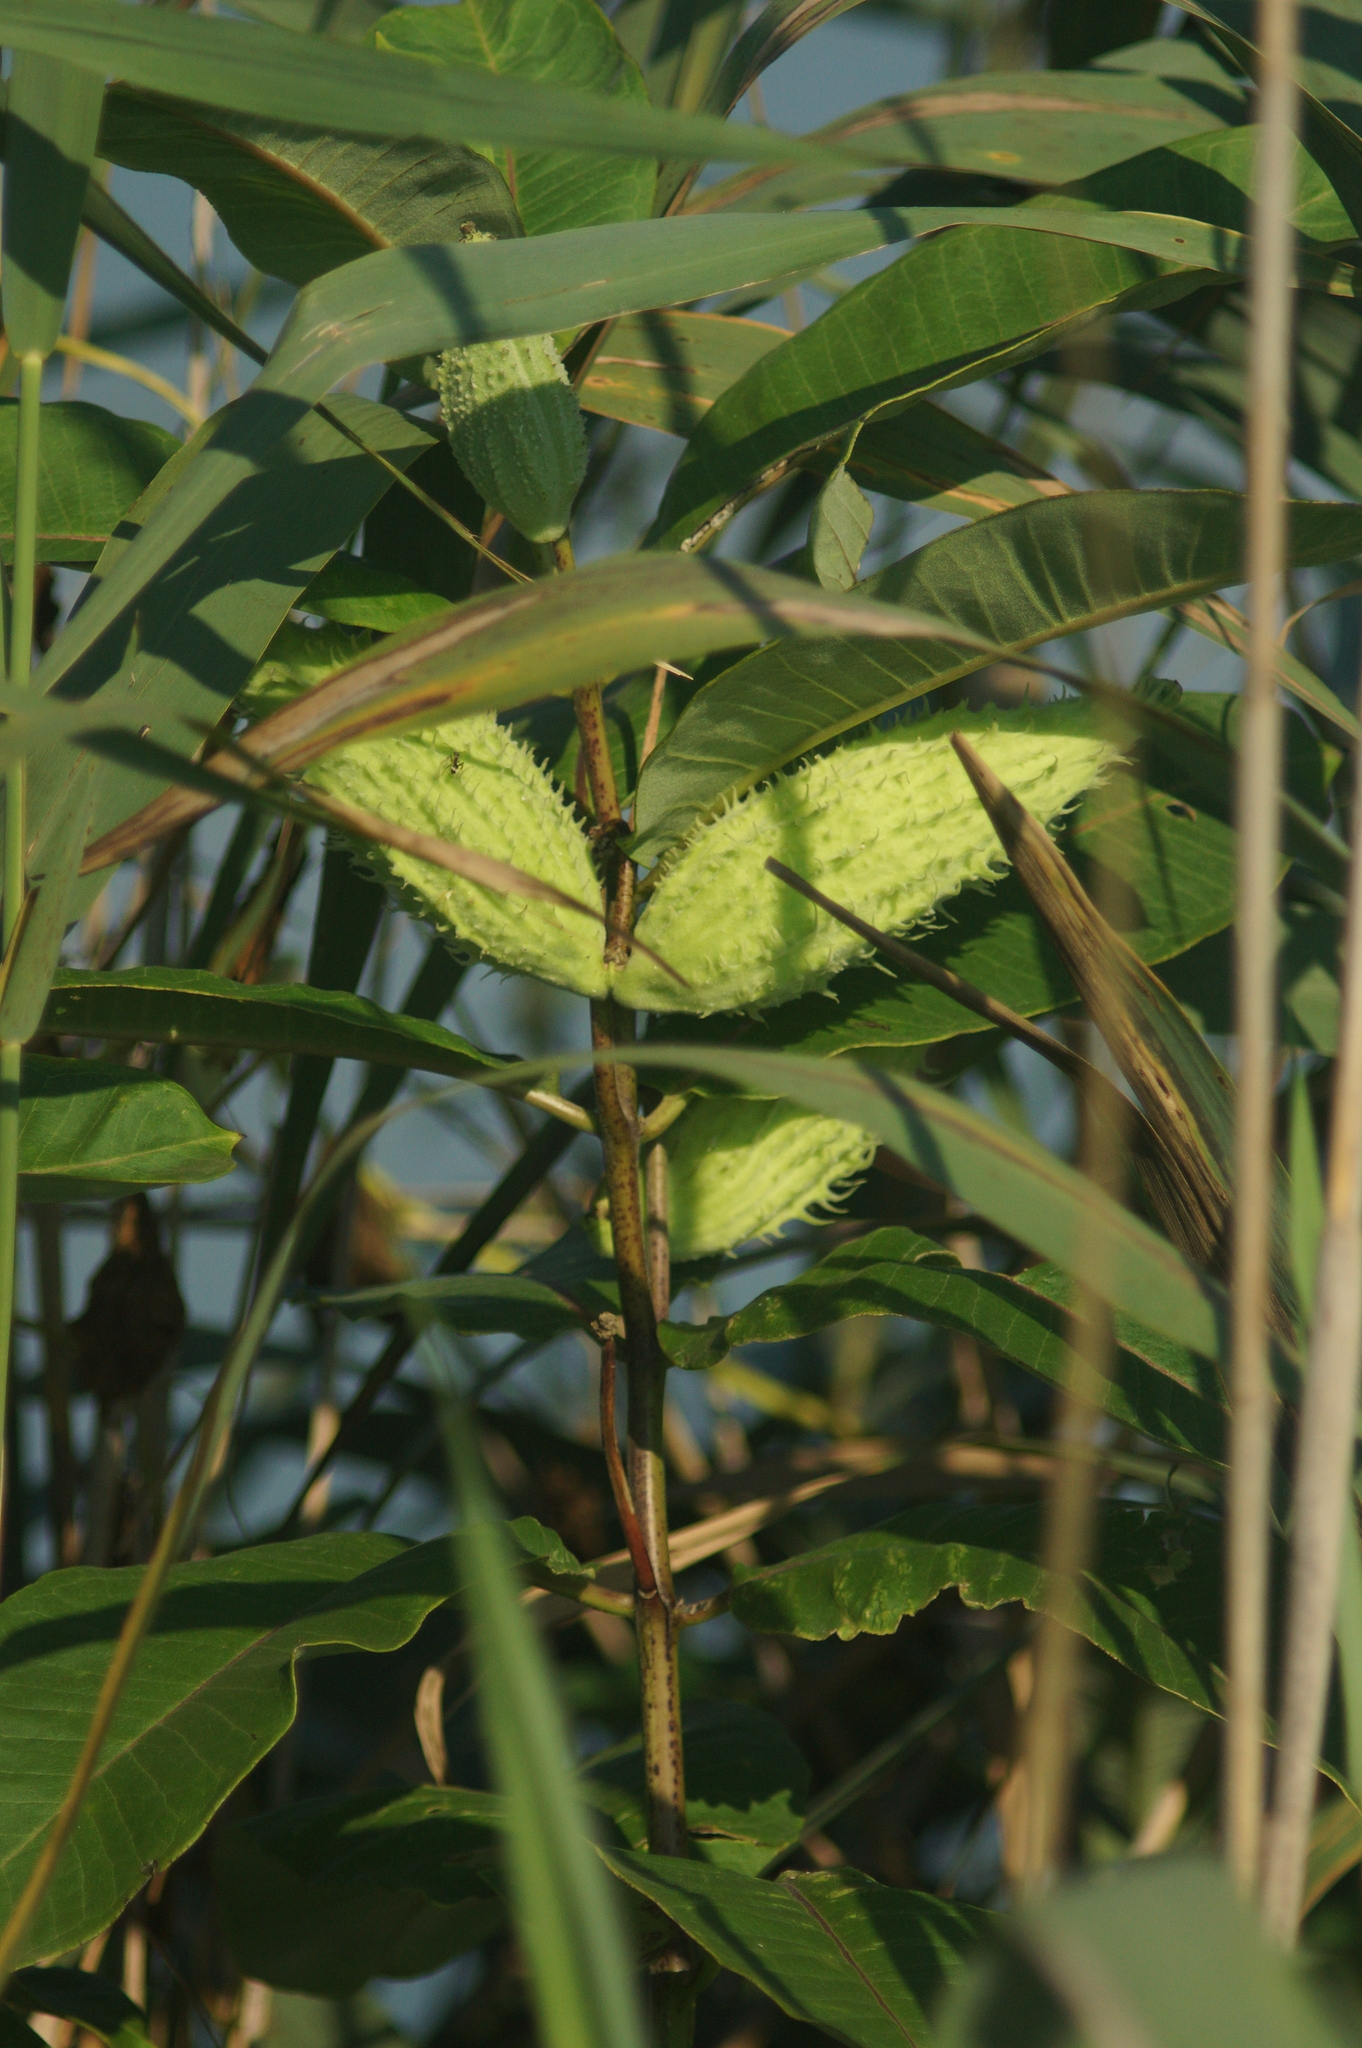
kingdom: Plantae
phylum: Tracheophyta
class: Magnoliopsida
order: Gentianales
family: Apocynaceae
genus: Asclepias
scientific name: Asclepias syriaca
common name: Common milkweed
